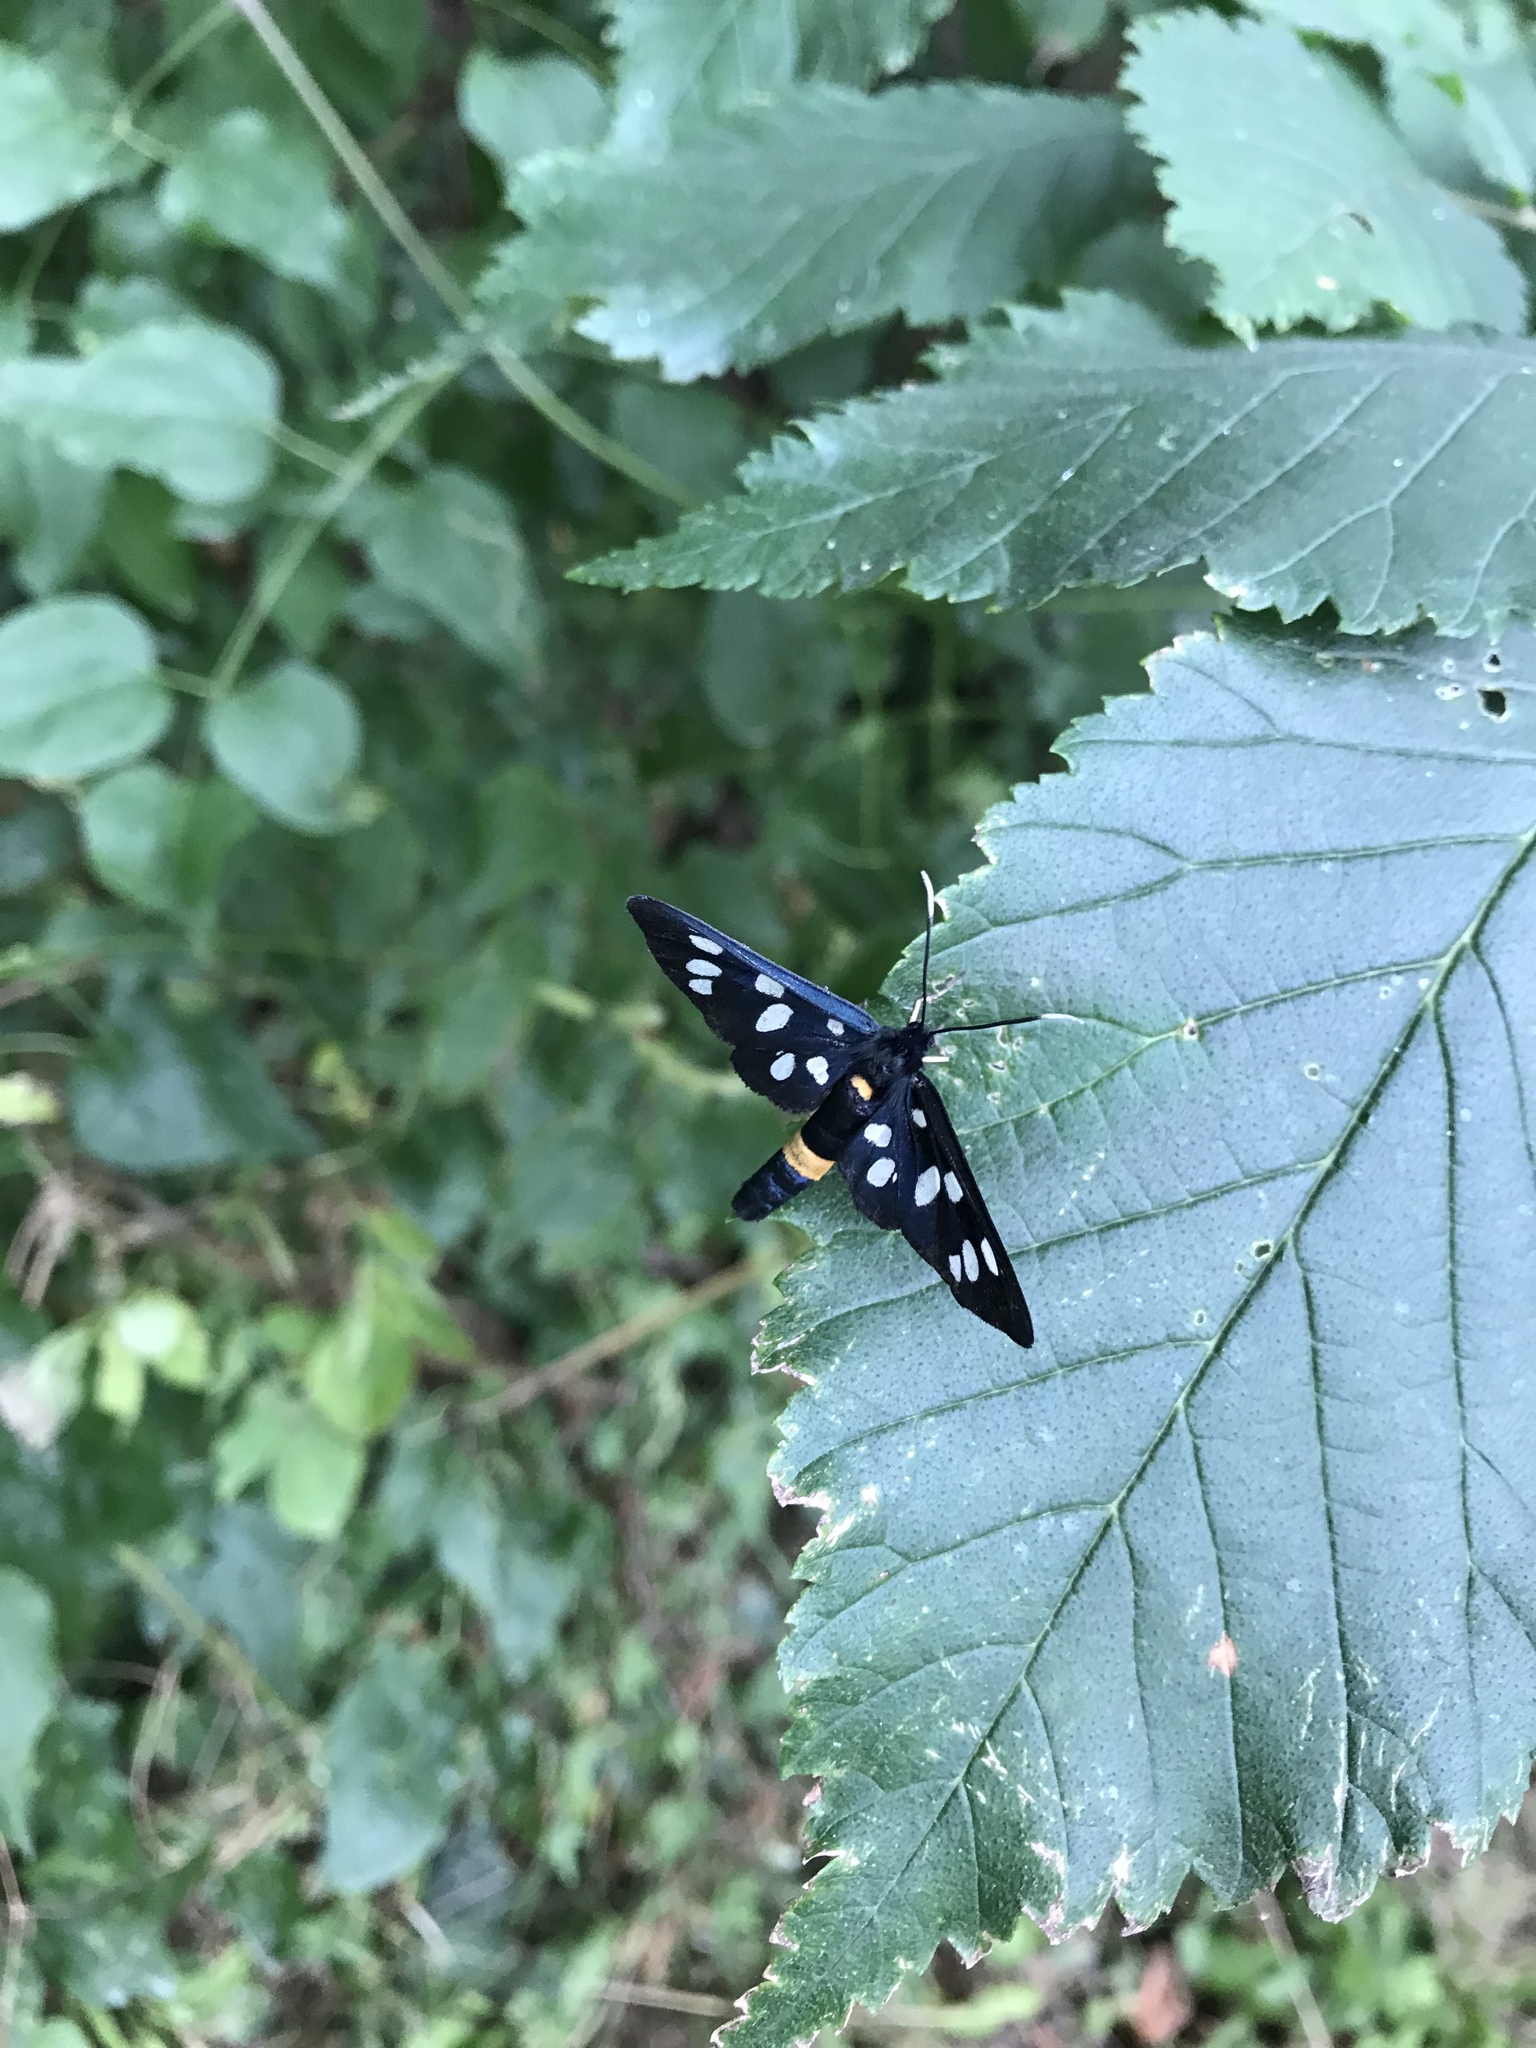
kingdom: Animalia
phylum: Arthropoda
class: Insecta
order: Lepidoptera
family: Erebidae
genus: Amata
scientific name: Amata phegea
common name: Nine-spotted
